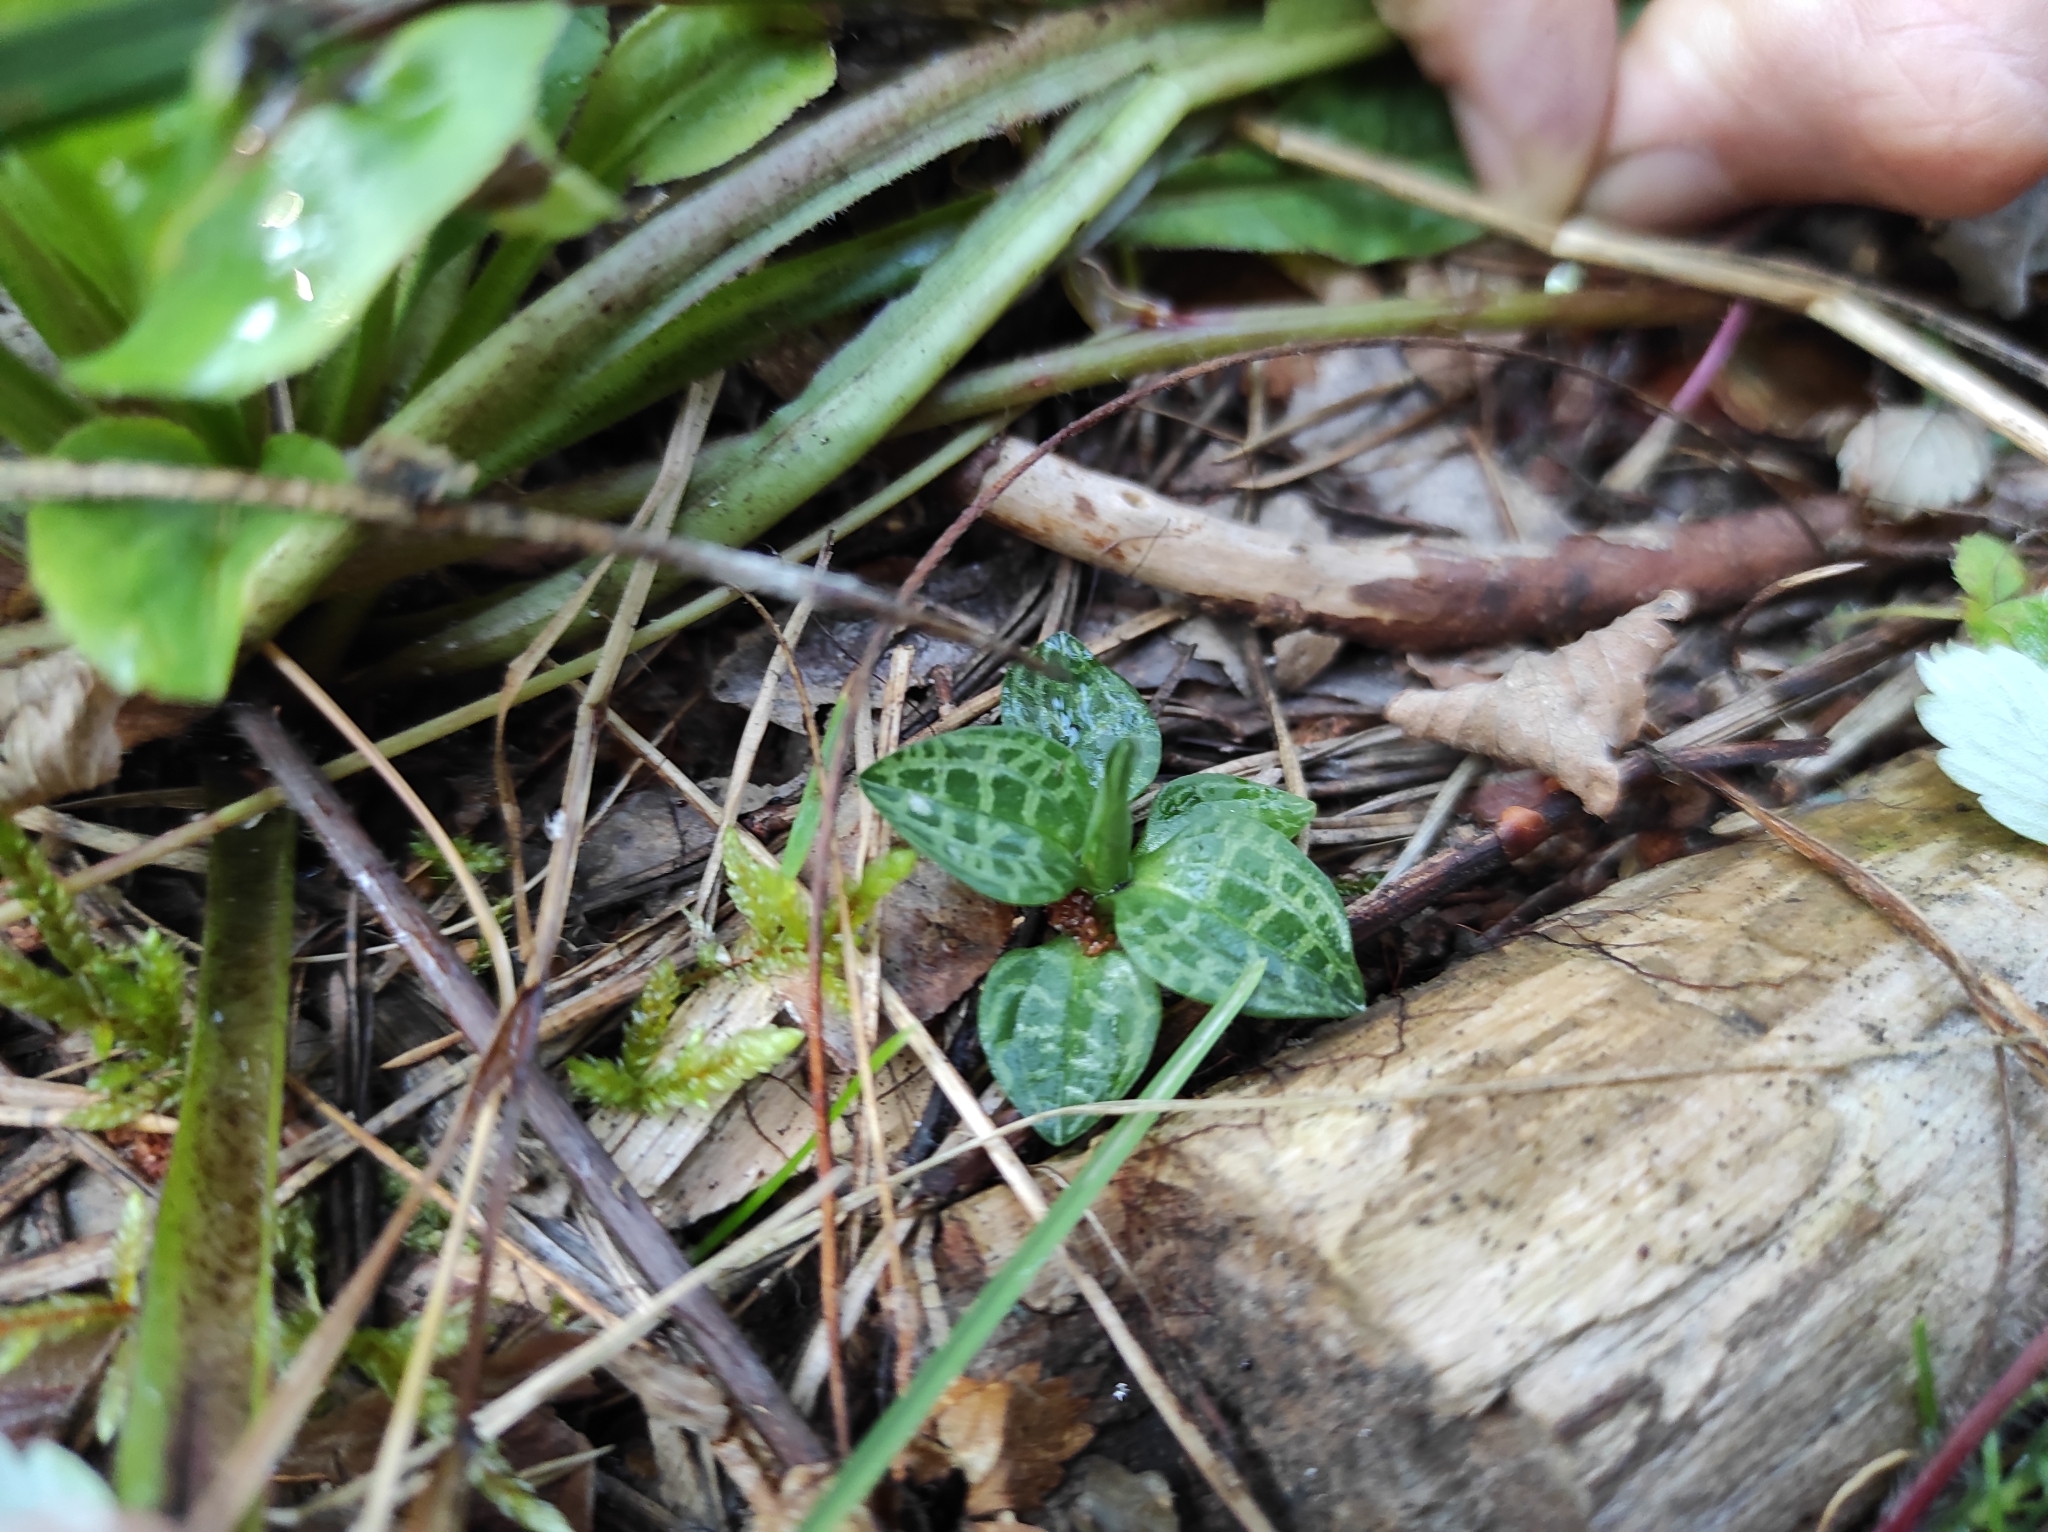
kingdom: Plantae
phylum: Tracheophyta
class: Liliopsida
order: Asparagales
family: Orchidaceae
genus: Goodyera
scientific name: Goodyera repens
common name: Creeping lady's-tresses
